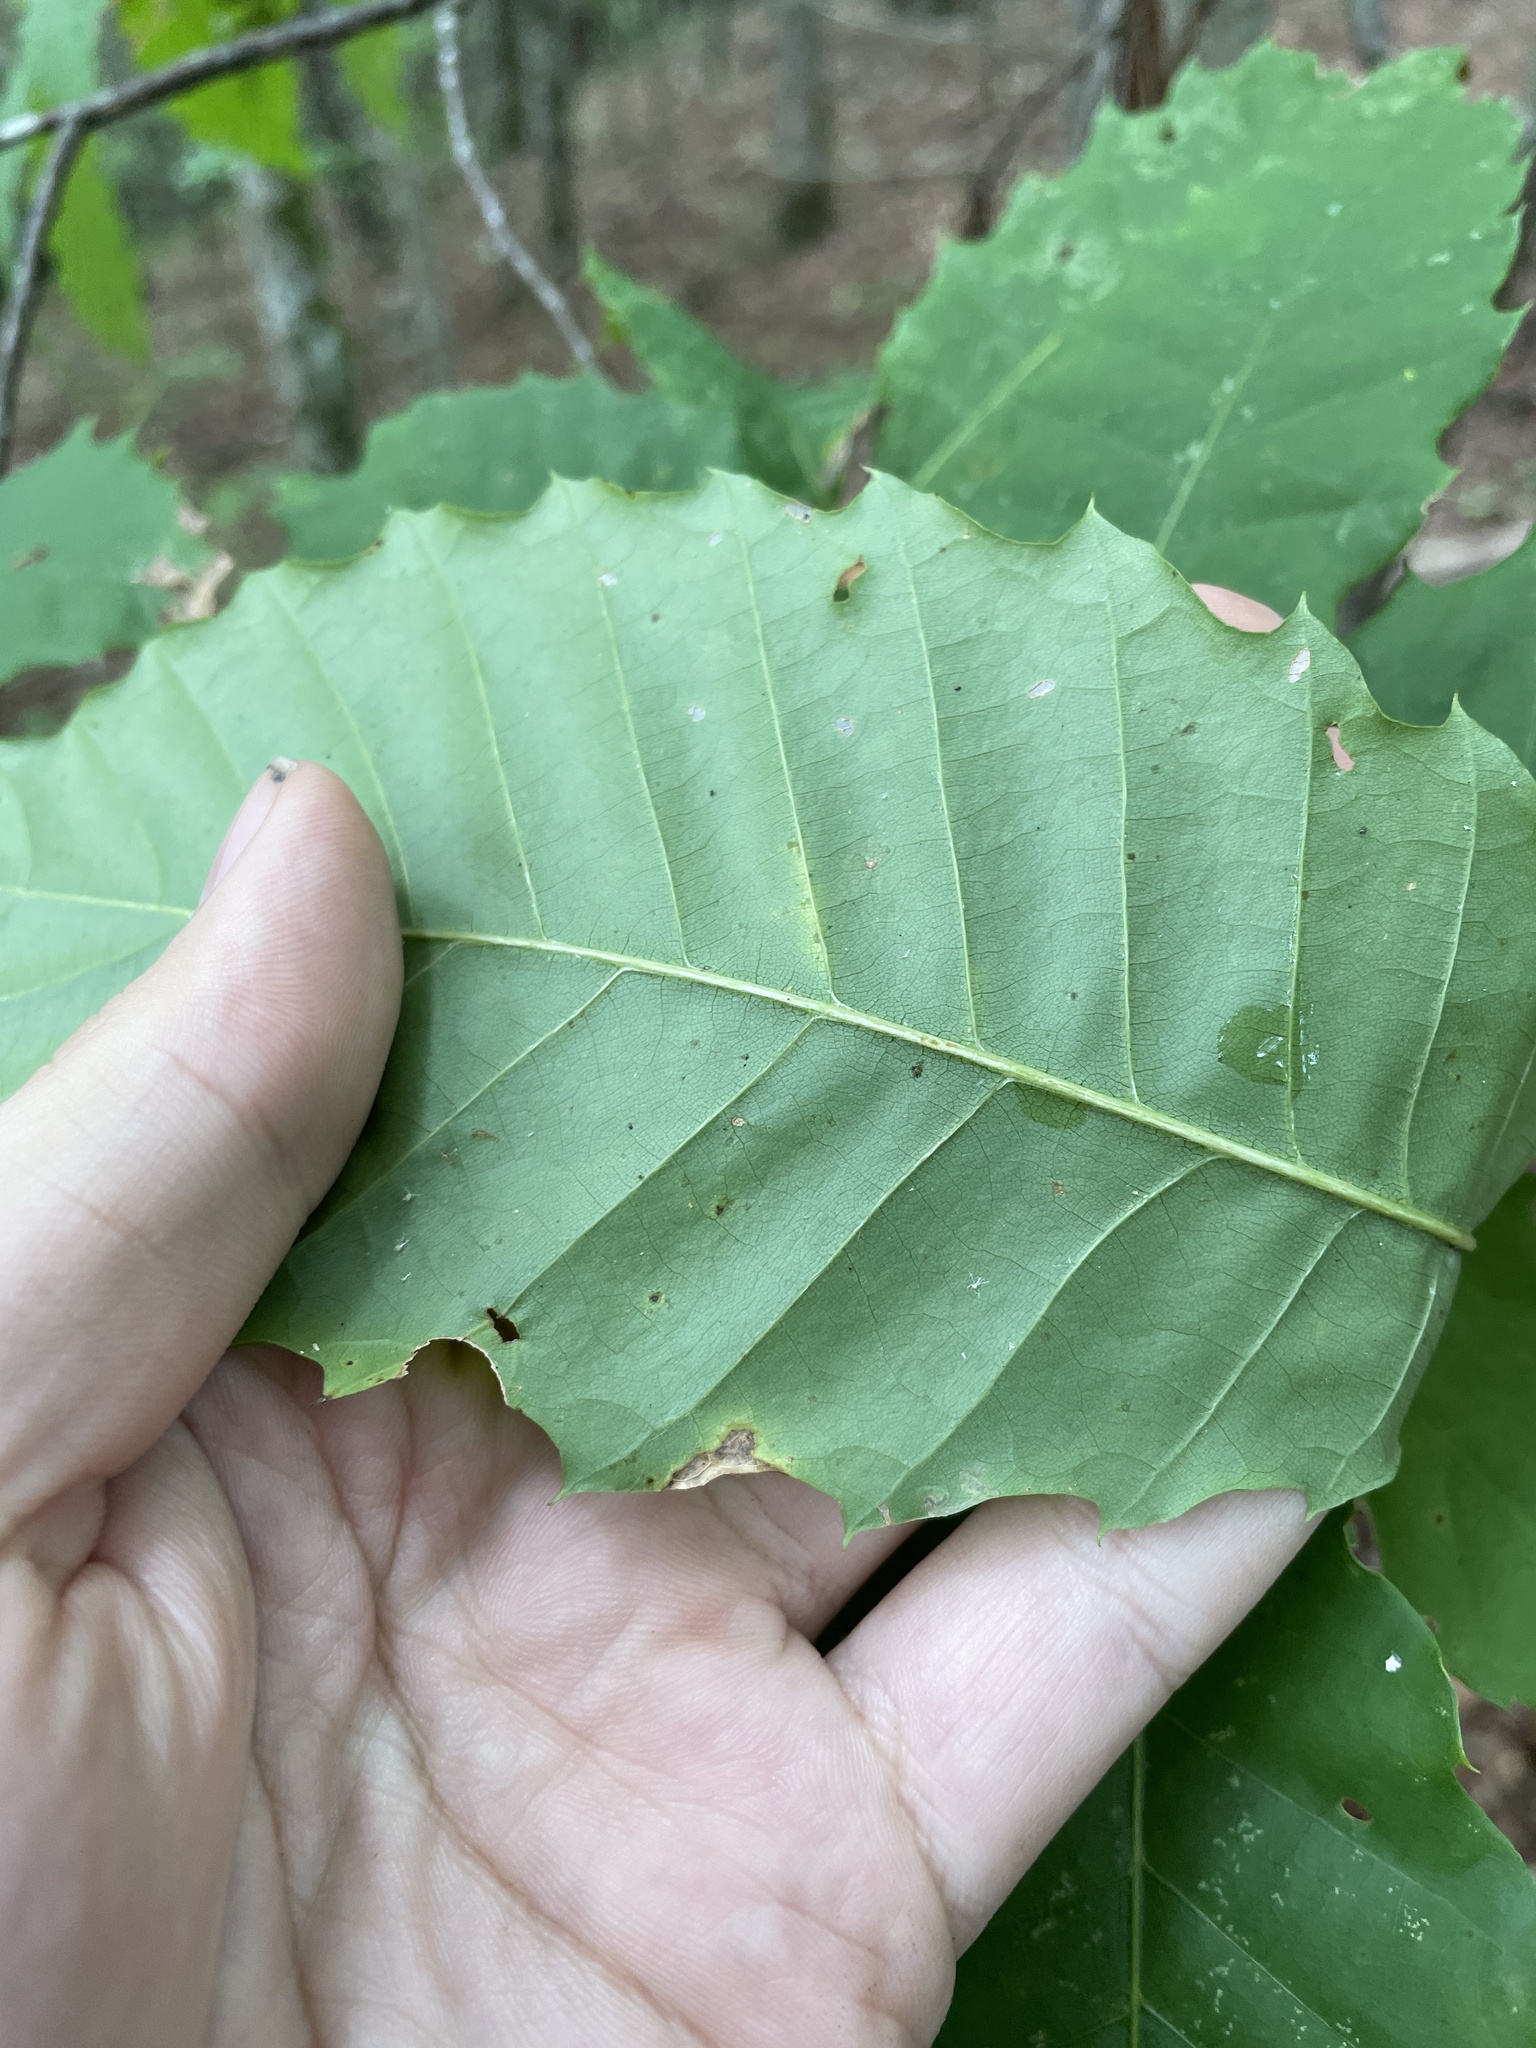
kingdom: Plantae
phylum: Tracheophyta
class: Magnoliopsida
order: Fagales
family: Fagaceae
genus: Castanea
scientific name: Castanea dentata
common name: American chestnut
